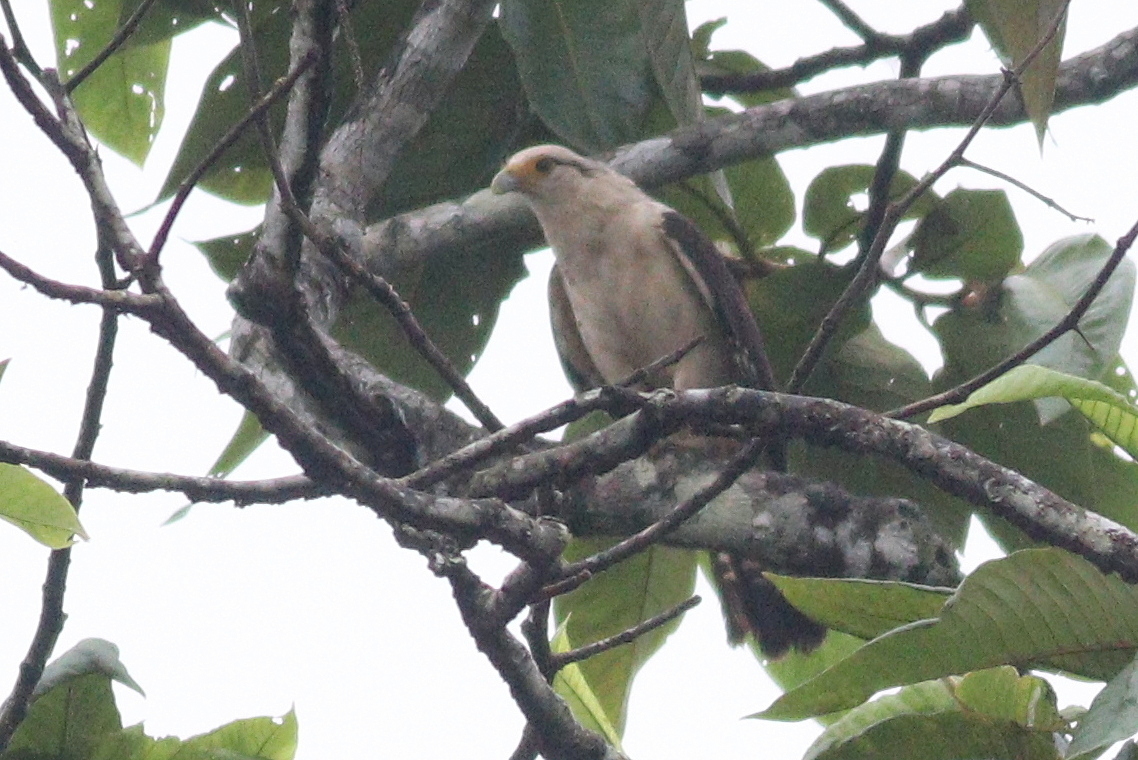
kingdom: Animalia
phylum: Chordata
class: Aves
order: Falconiformes
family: Falconidae
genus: Daptrius
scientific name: Daptrius
